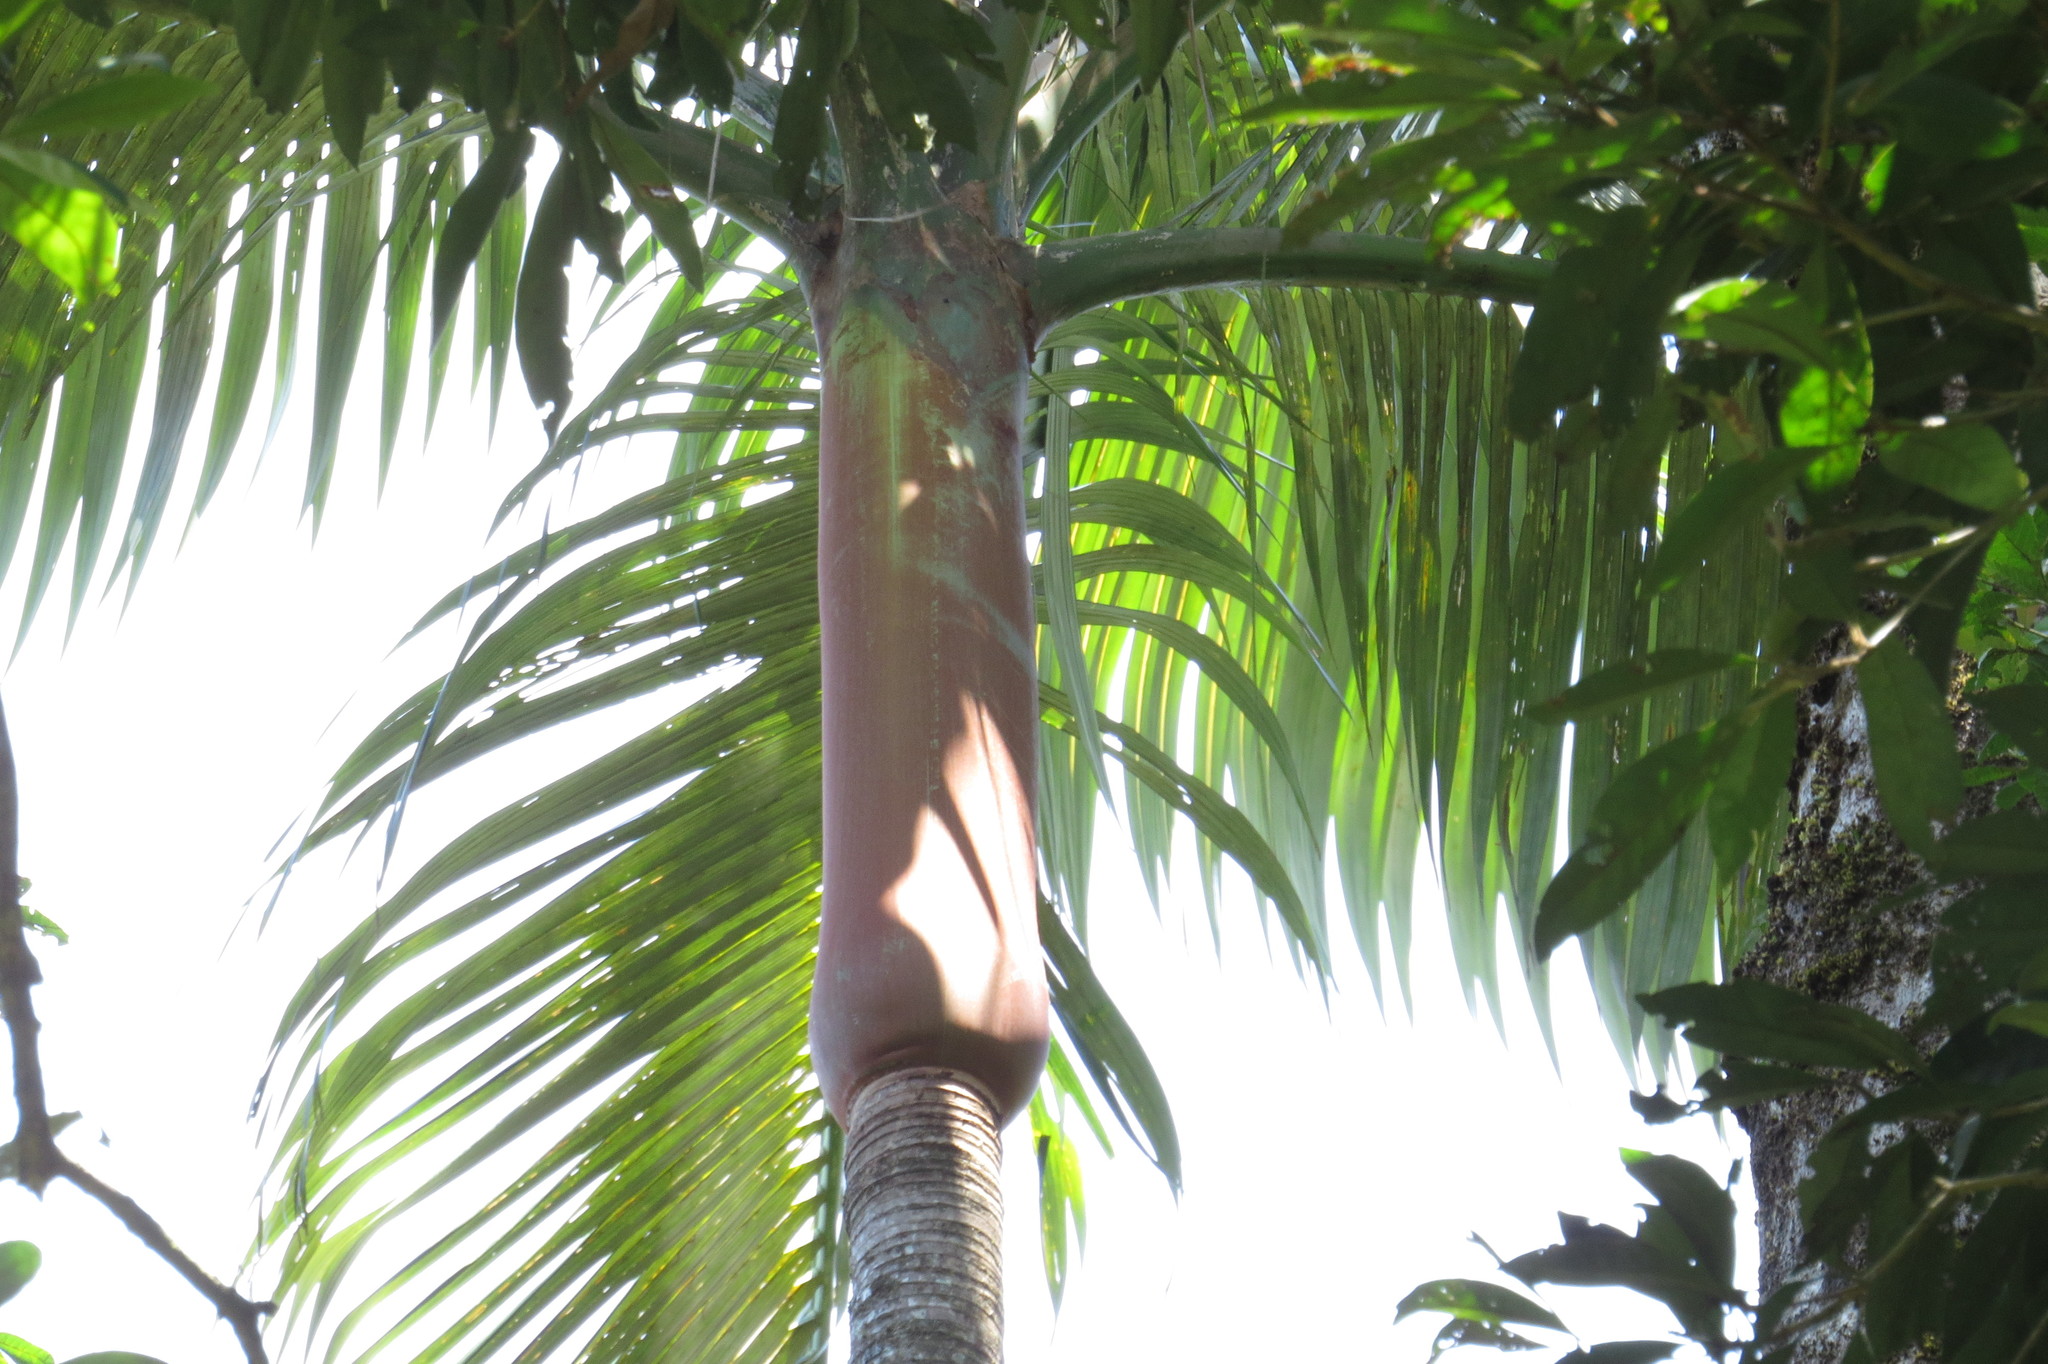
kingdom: Plantae
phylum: Tracheophyta
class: Liliopsida
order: Arecales
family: Arecaceae
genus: Archontophoenix
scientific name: Archontophoenix purpurea
